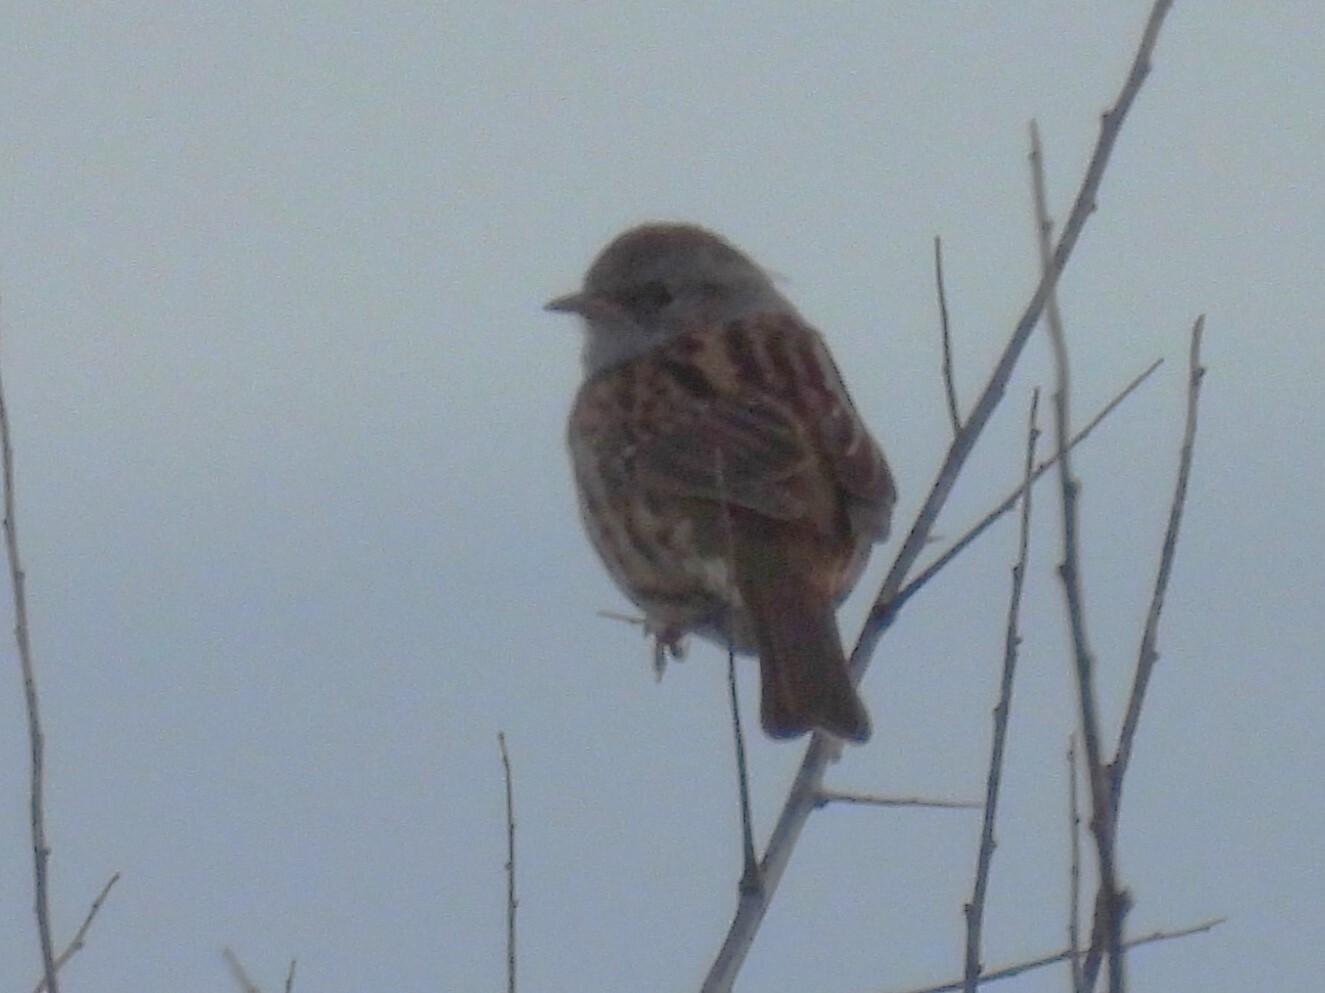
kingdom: Animalia
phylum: Chordata
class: Aves
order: Passeriformes
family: Prunellidae
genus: Prunella
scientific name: Prunella modularis
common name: Dunnock
